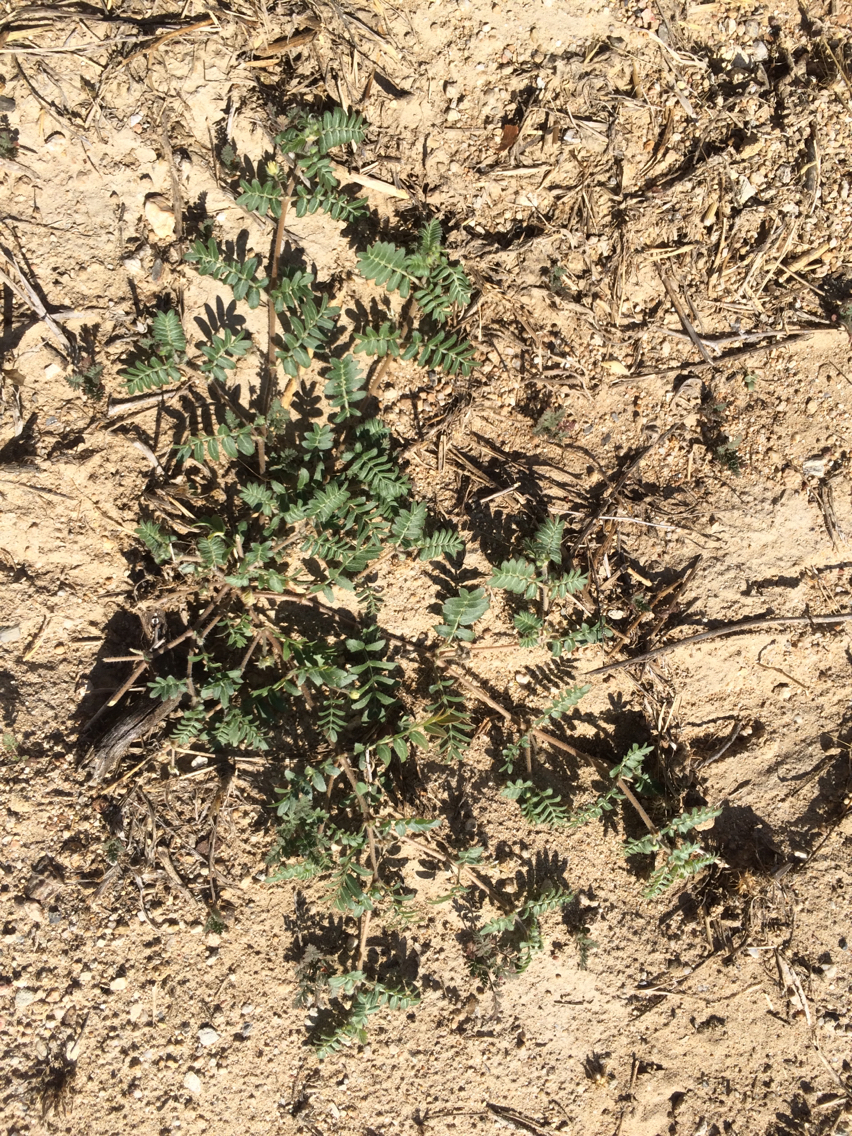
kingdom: Plantae
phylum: Tracheophyta
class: Magnoliopsida
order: Zygophyllales
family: Zygophyllaceae
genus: Tribulus
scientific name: Tribulus terrestris
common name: Puncturevine
